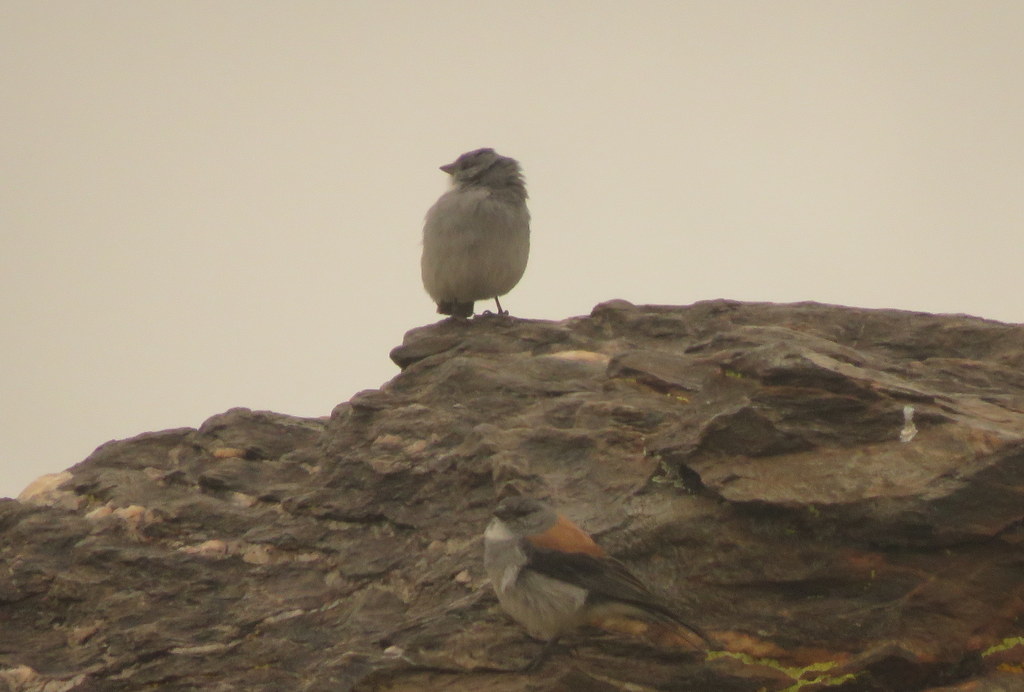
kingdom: Animalia
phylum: Chordata
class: Aves
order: Passeriformes
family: Thraupidae
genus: Geospizopsis
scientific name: Geospizopsis plebejus
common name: Ash-breasted sierra-finch
